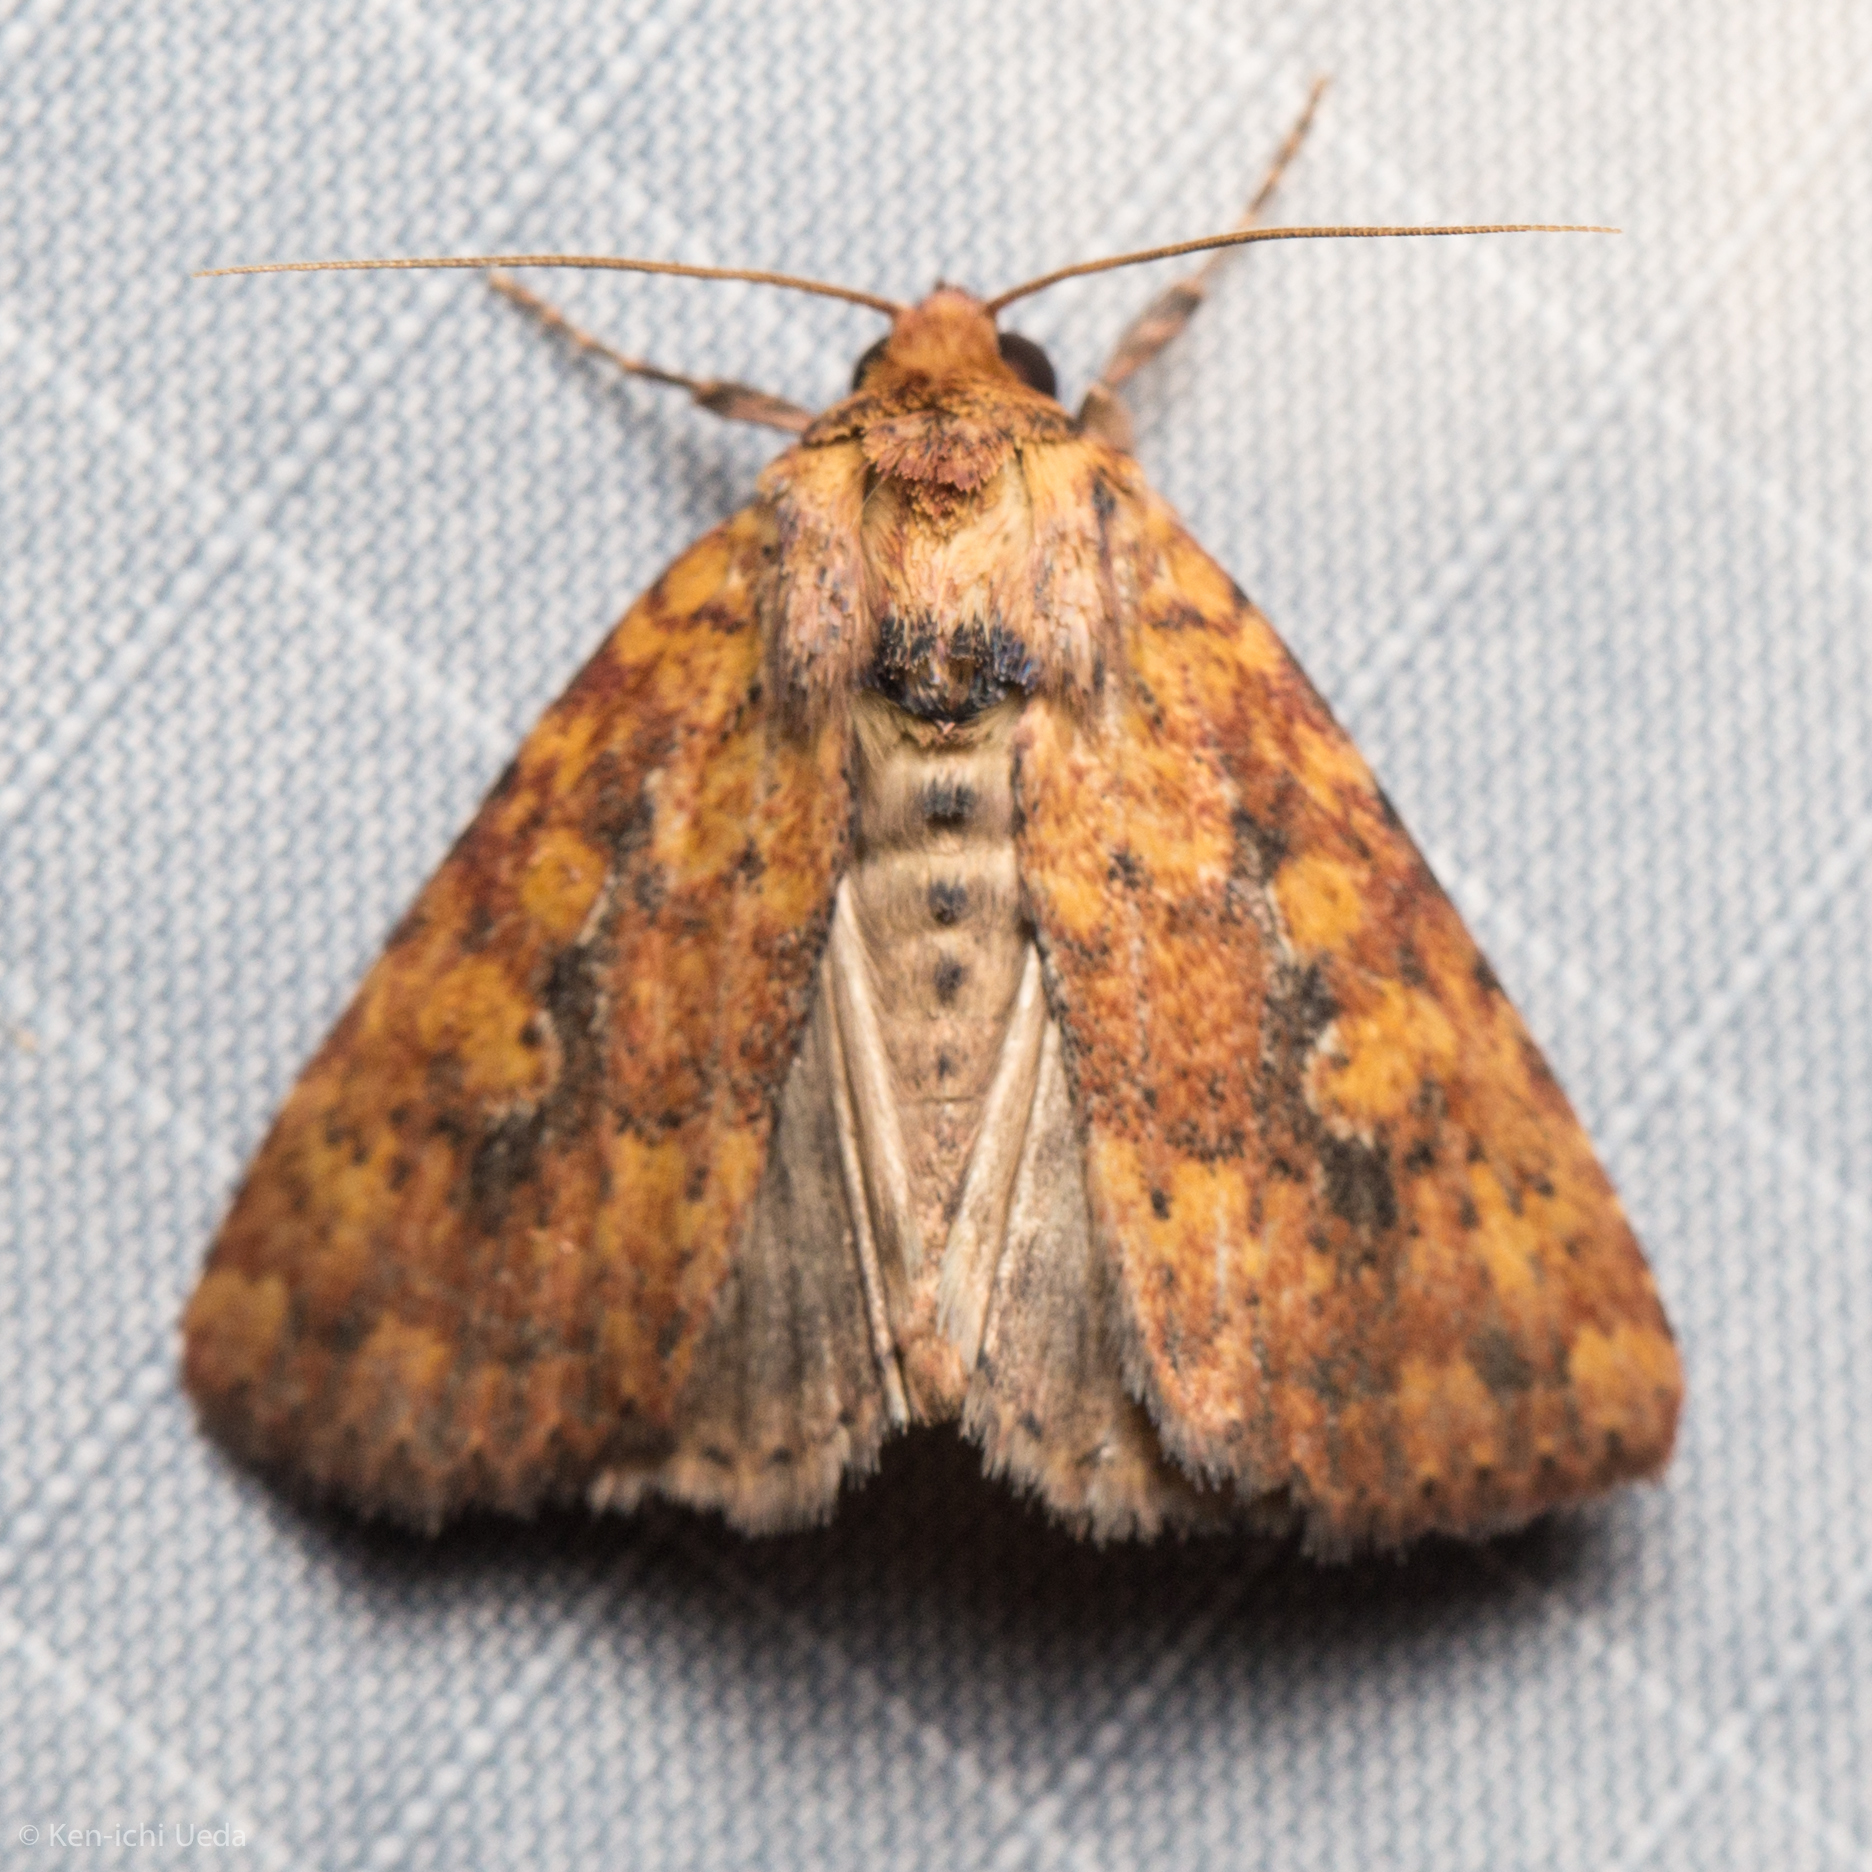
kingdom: Animalia
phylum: Arthropoda
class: Insecta
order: Lepidoptera
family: Noctuidae
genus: Perigea
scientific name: Perigea xanthioides
